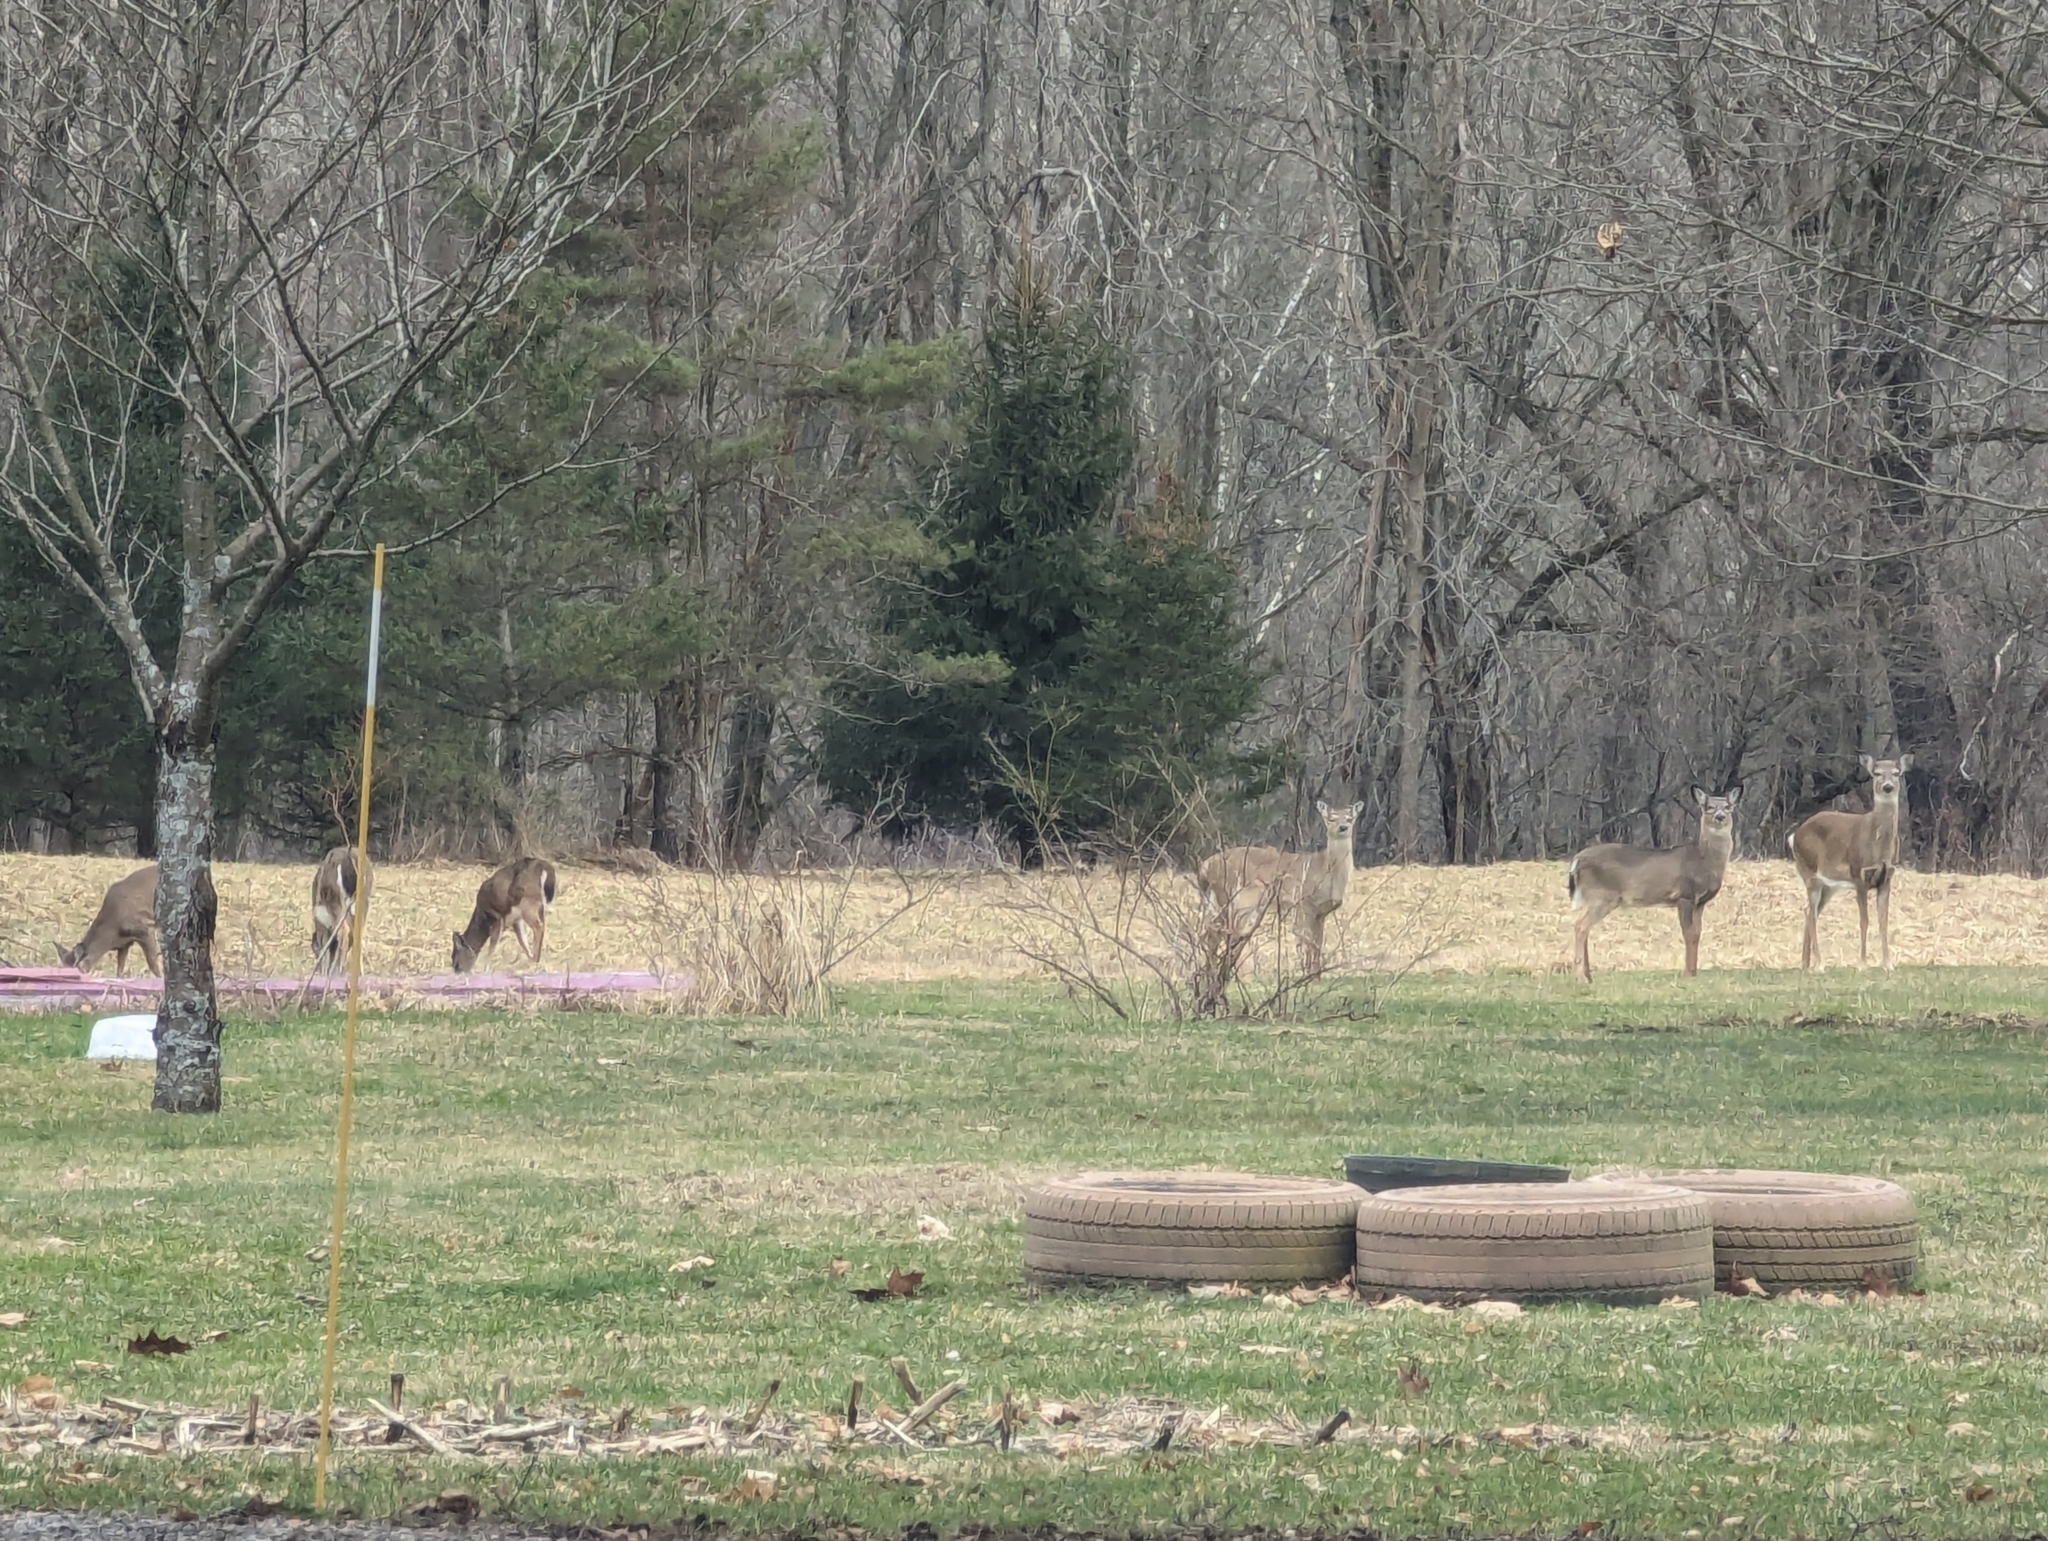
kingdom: Animalia
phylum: Chordata
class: Mammalia
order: Artiodactyla
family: Cervidae
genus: Odocoileus
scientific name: Odocoileus virginianus
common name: White-tailed deer
